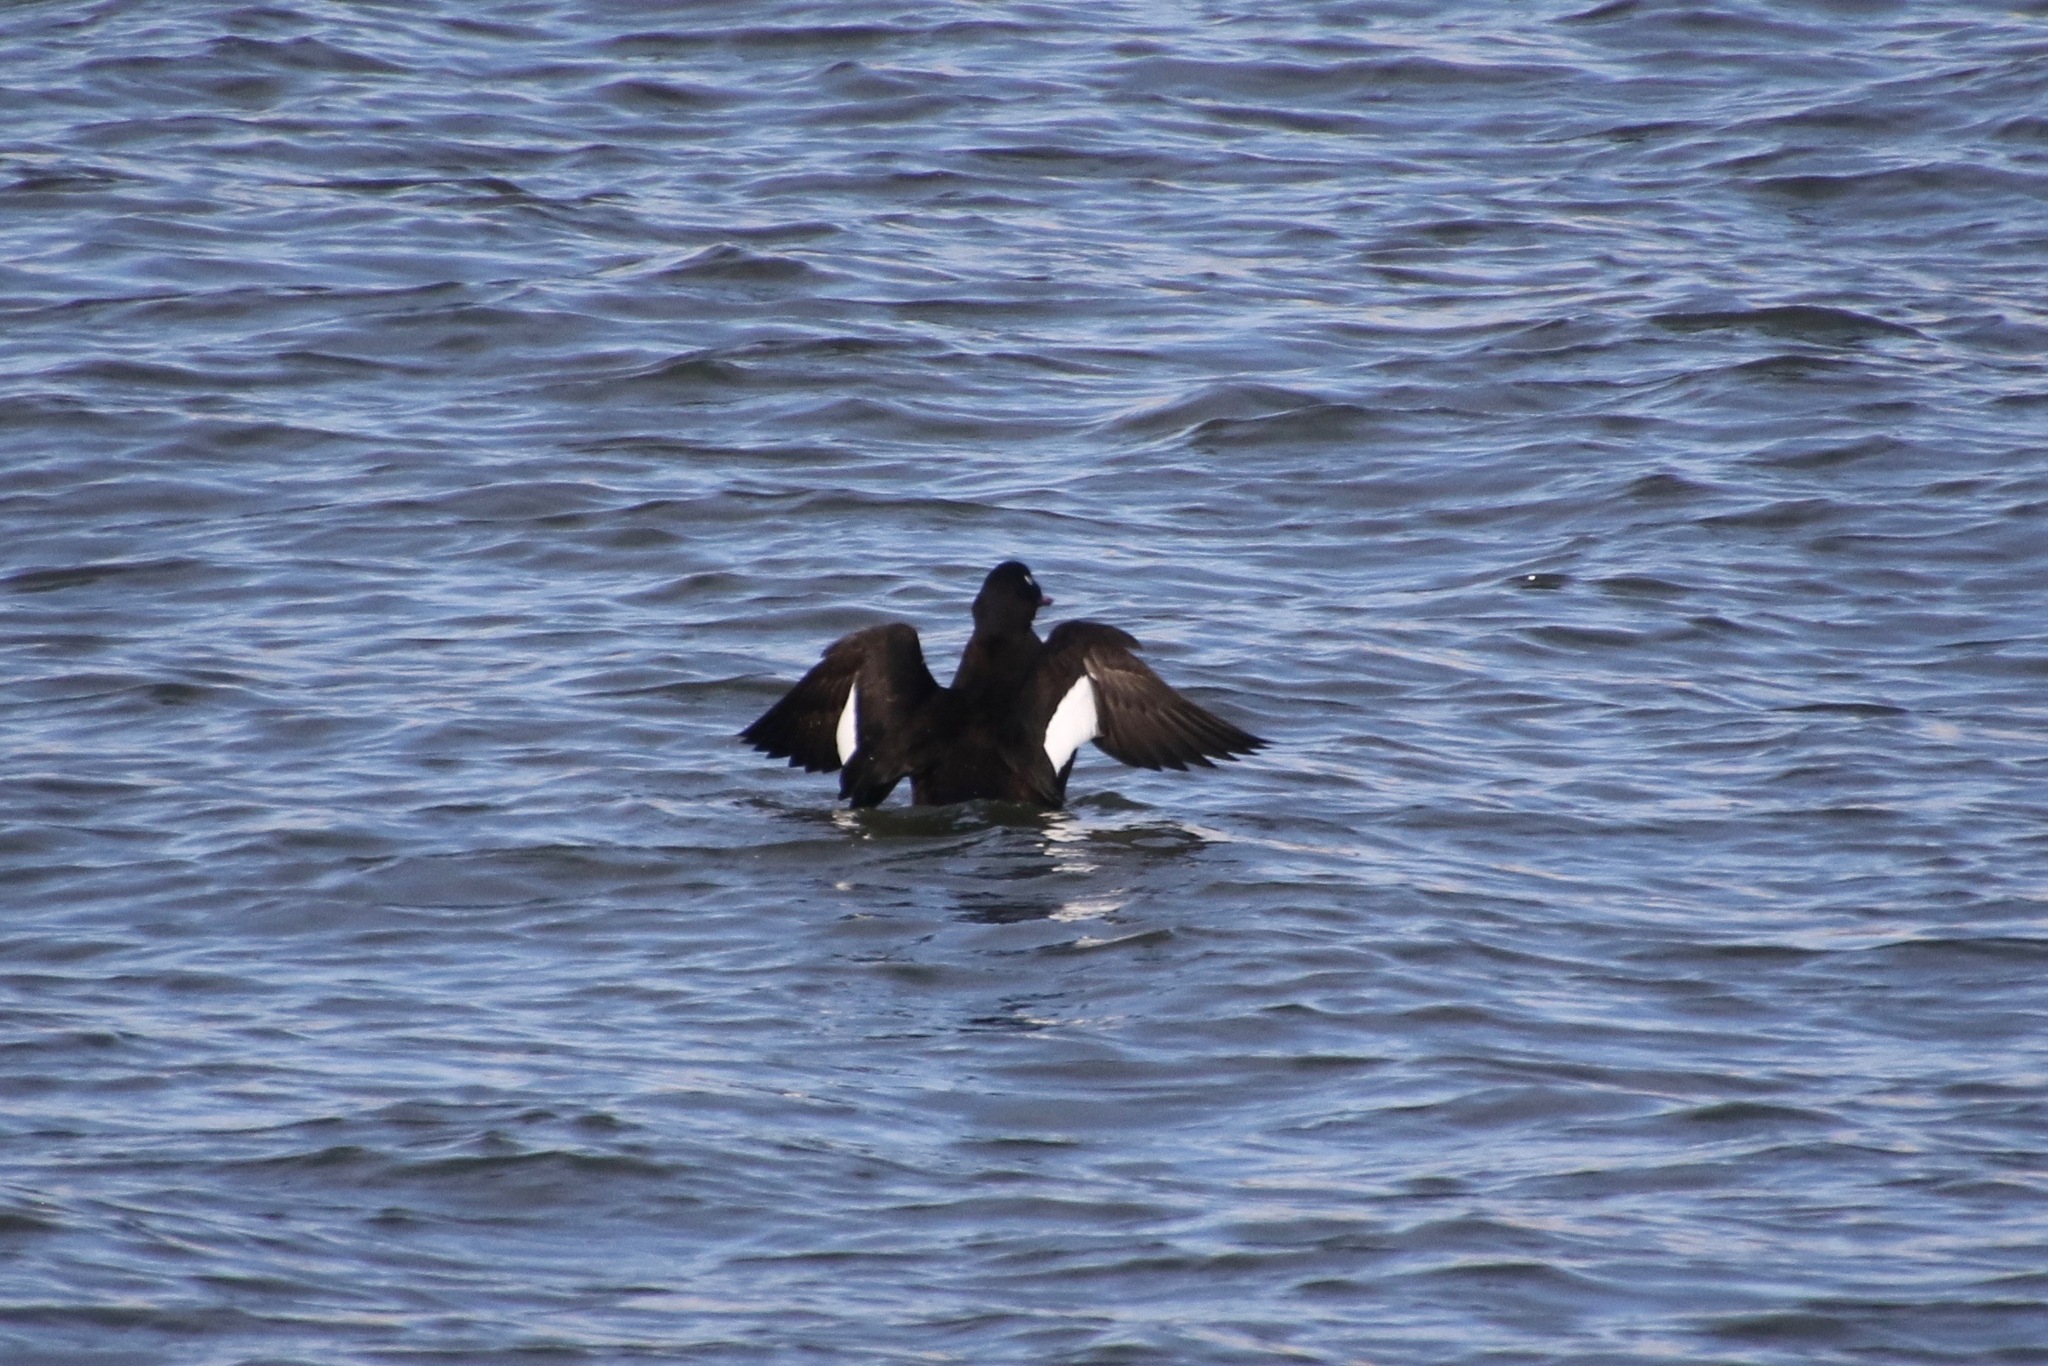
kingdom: Animalia
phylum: Chordata
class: Aves
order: Anseriformes
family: Anatidae
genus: Melanitta
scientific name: Melanitta deglandi
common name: White-winged scoter
